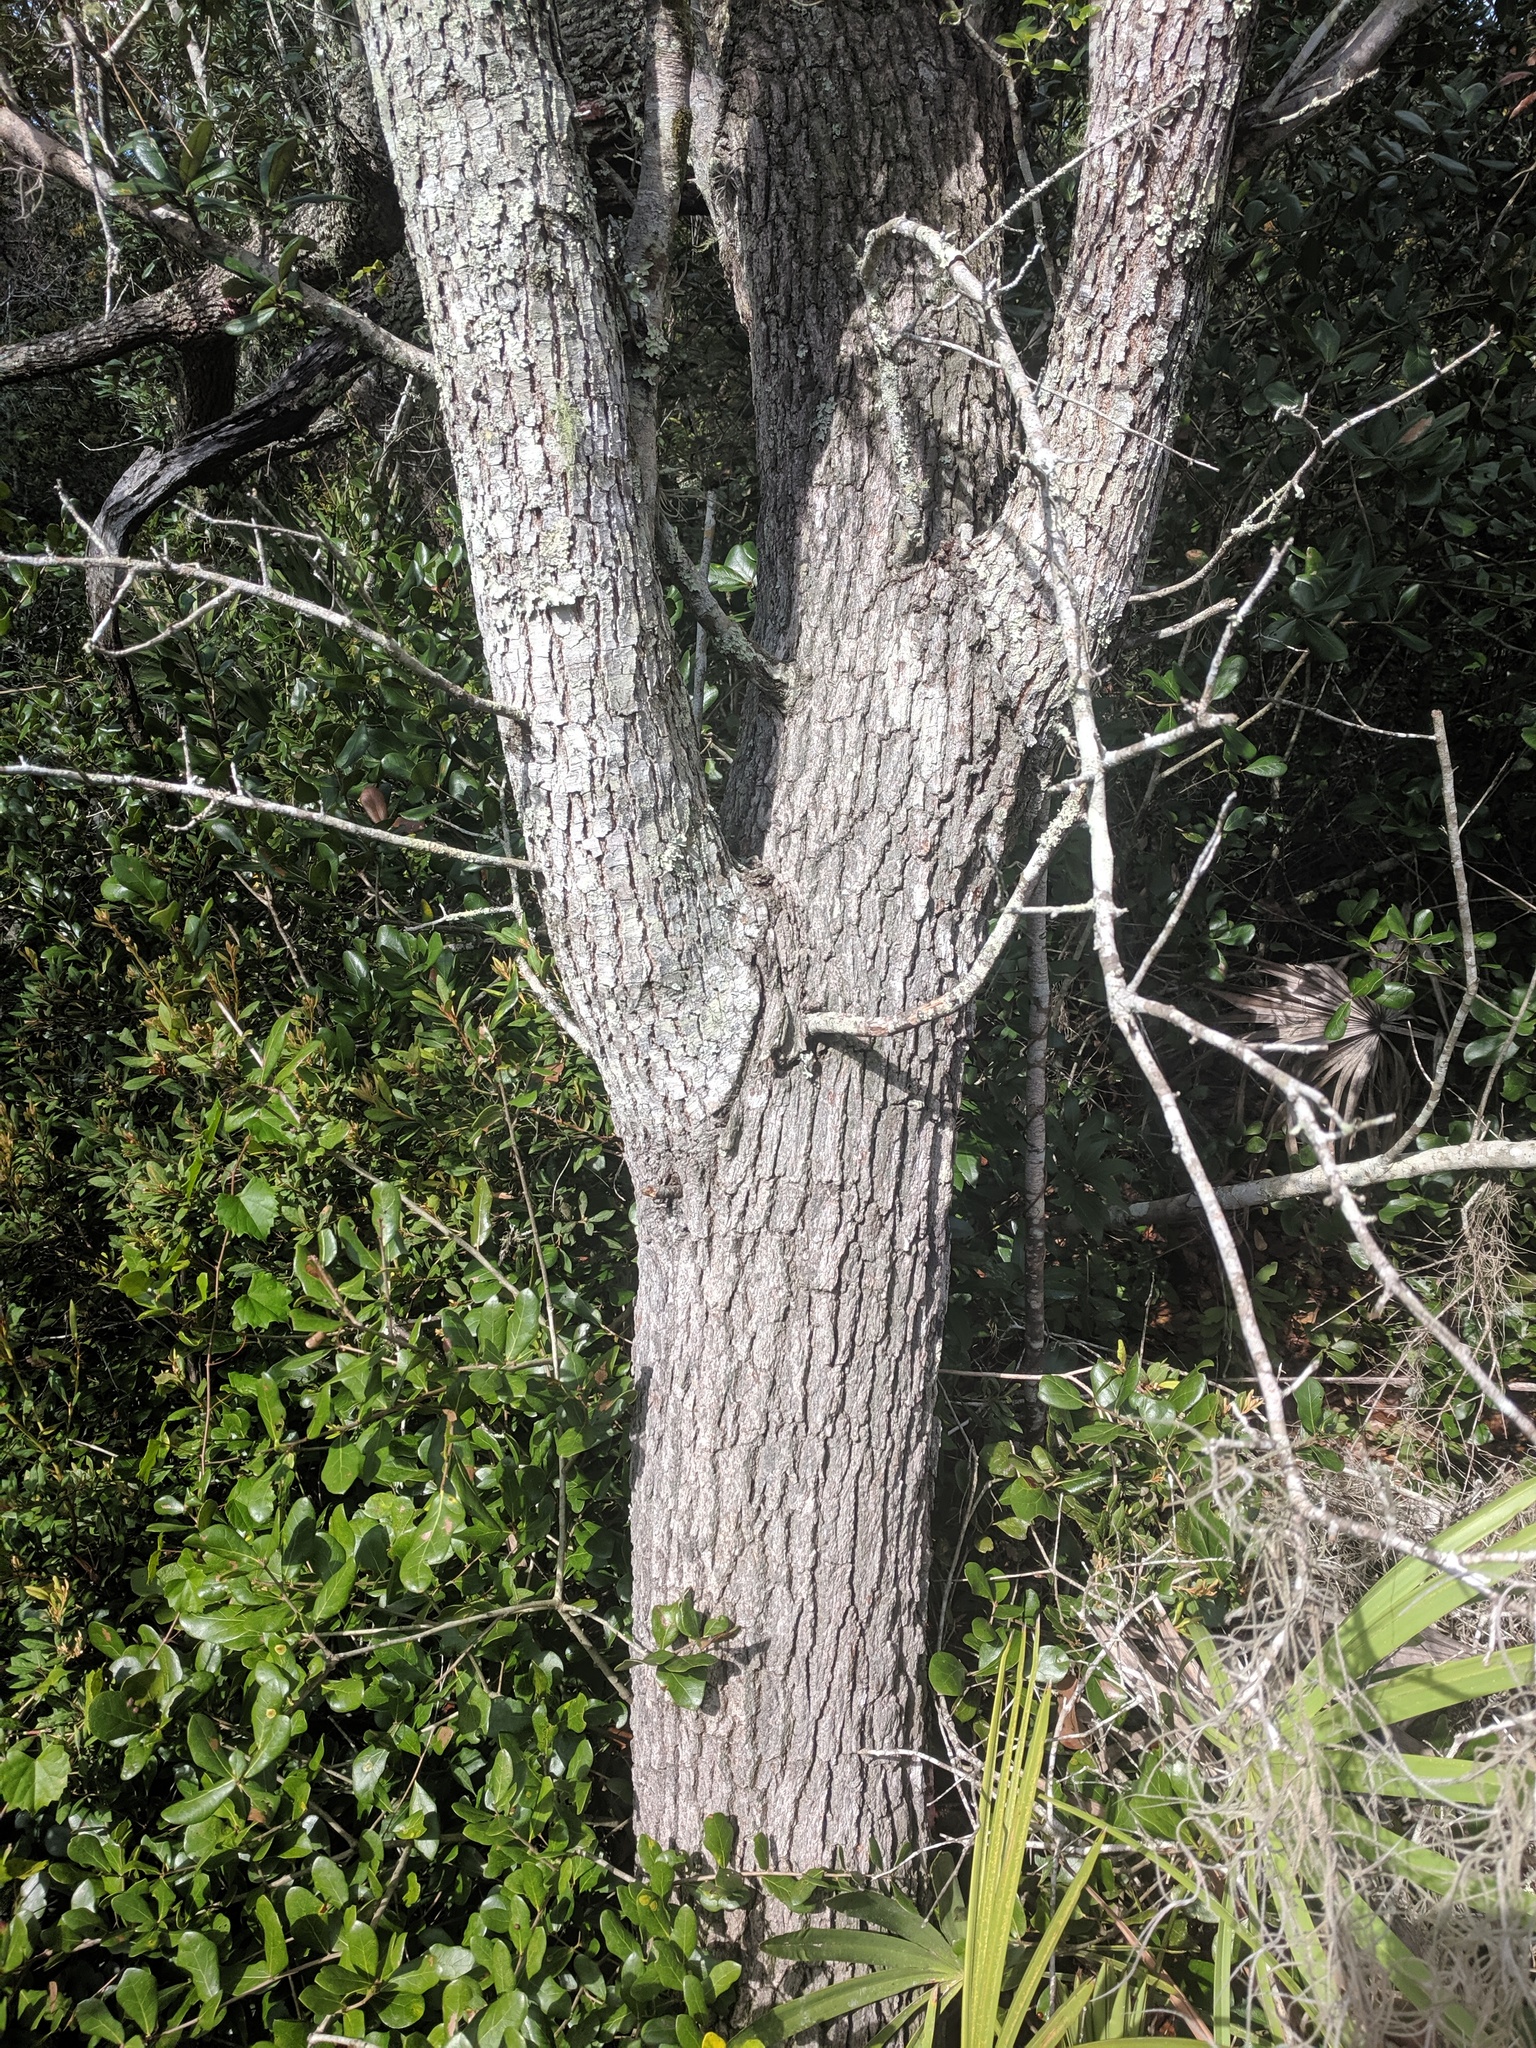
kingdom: Plantae
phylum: Tracheophyta
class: Magnoliopsida
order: Fagales
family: Fagaceae
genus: Quercus
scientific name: Quercus geminata
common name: Sand live oak
